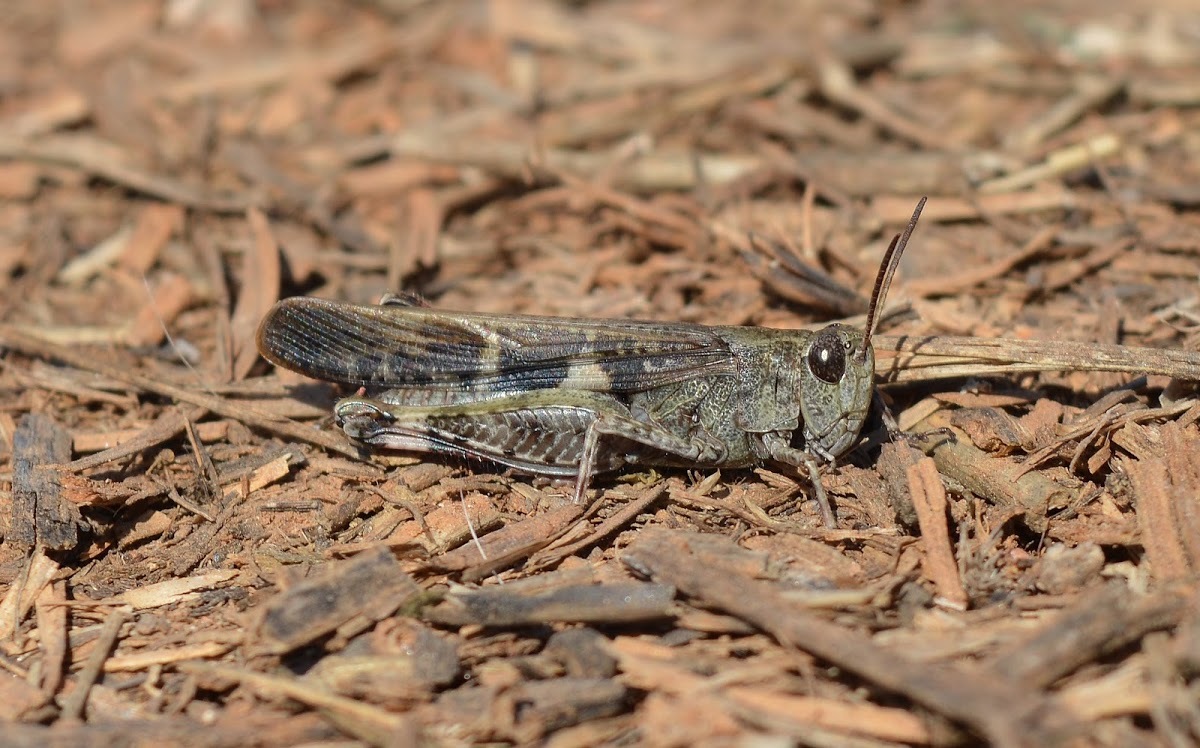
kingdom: Animalia
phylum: Arthropoda
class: Insecta
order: Orthoptera
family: Acrididae
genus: Aiolopus
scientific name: Aiolopus strepens
